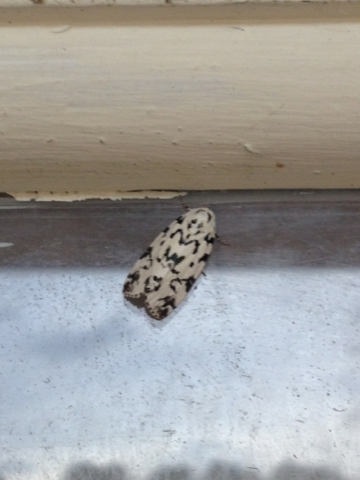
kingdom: Animalia
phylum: Arthropoda
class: Insecta
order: Lepidoptera
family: Noctuidae
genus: Polygrammate
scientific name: Polygrammate hebraeicum
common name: Hebrew moth
